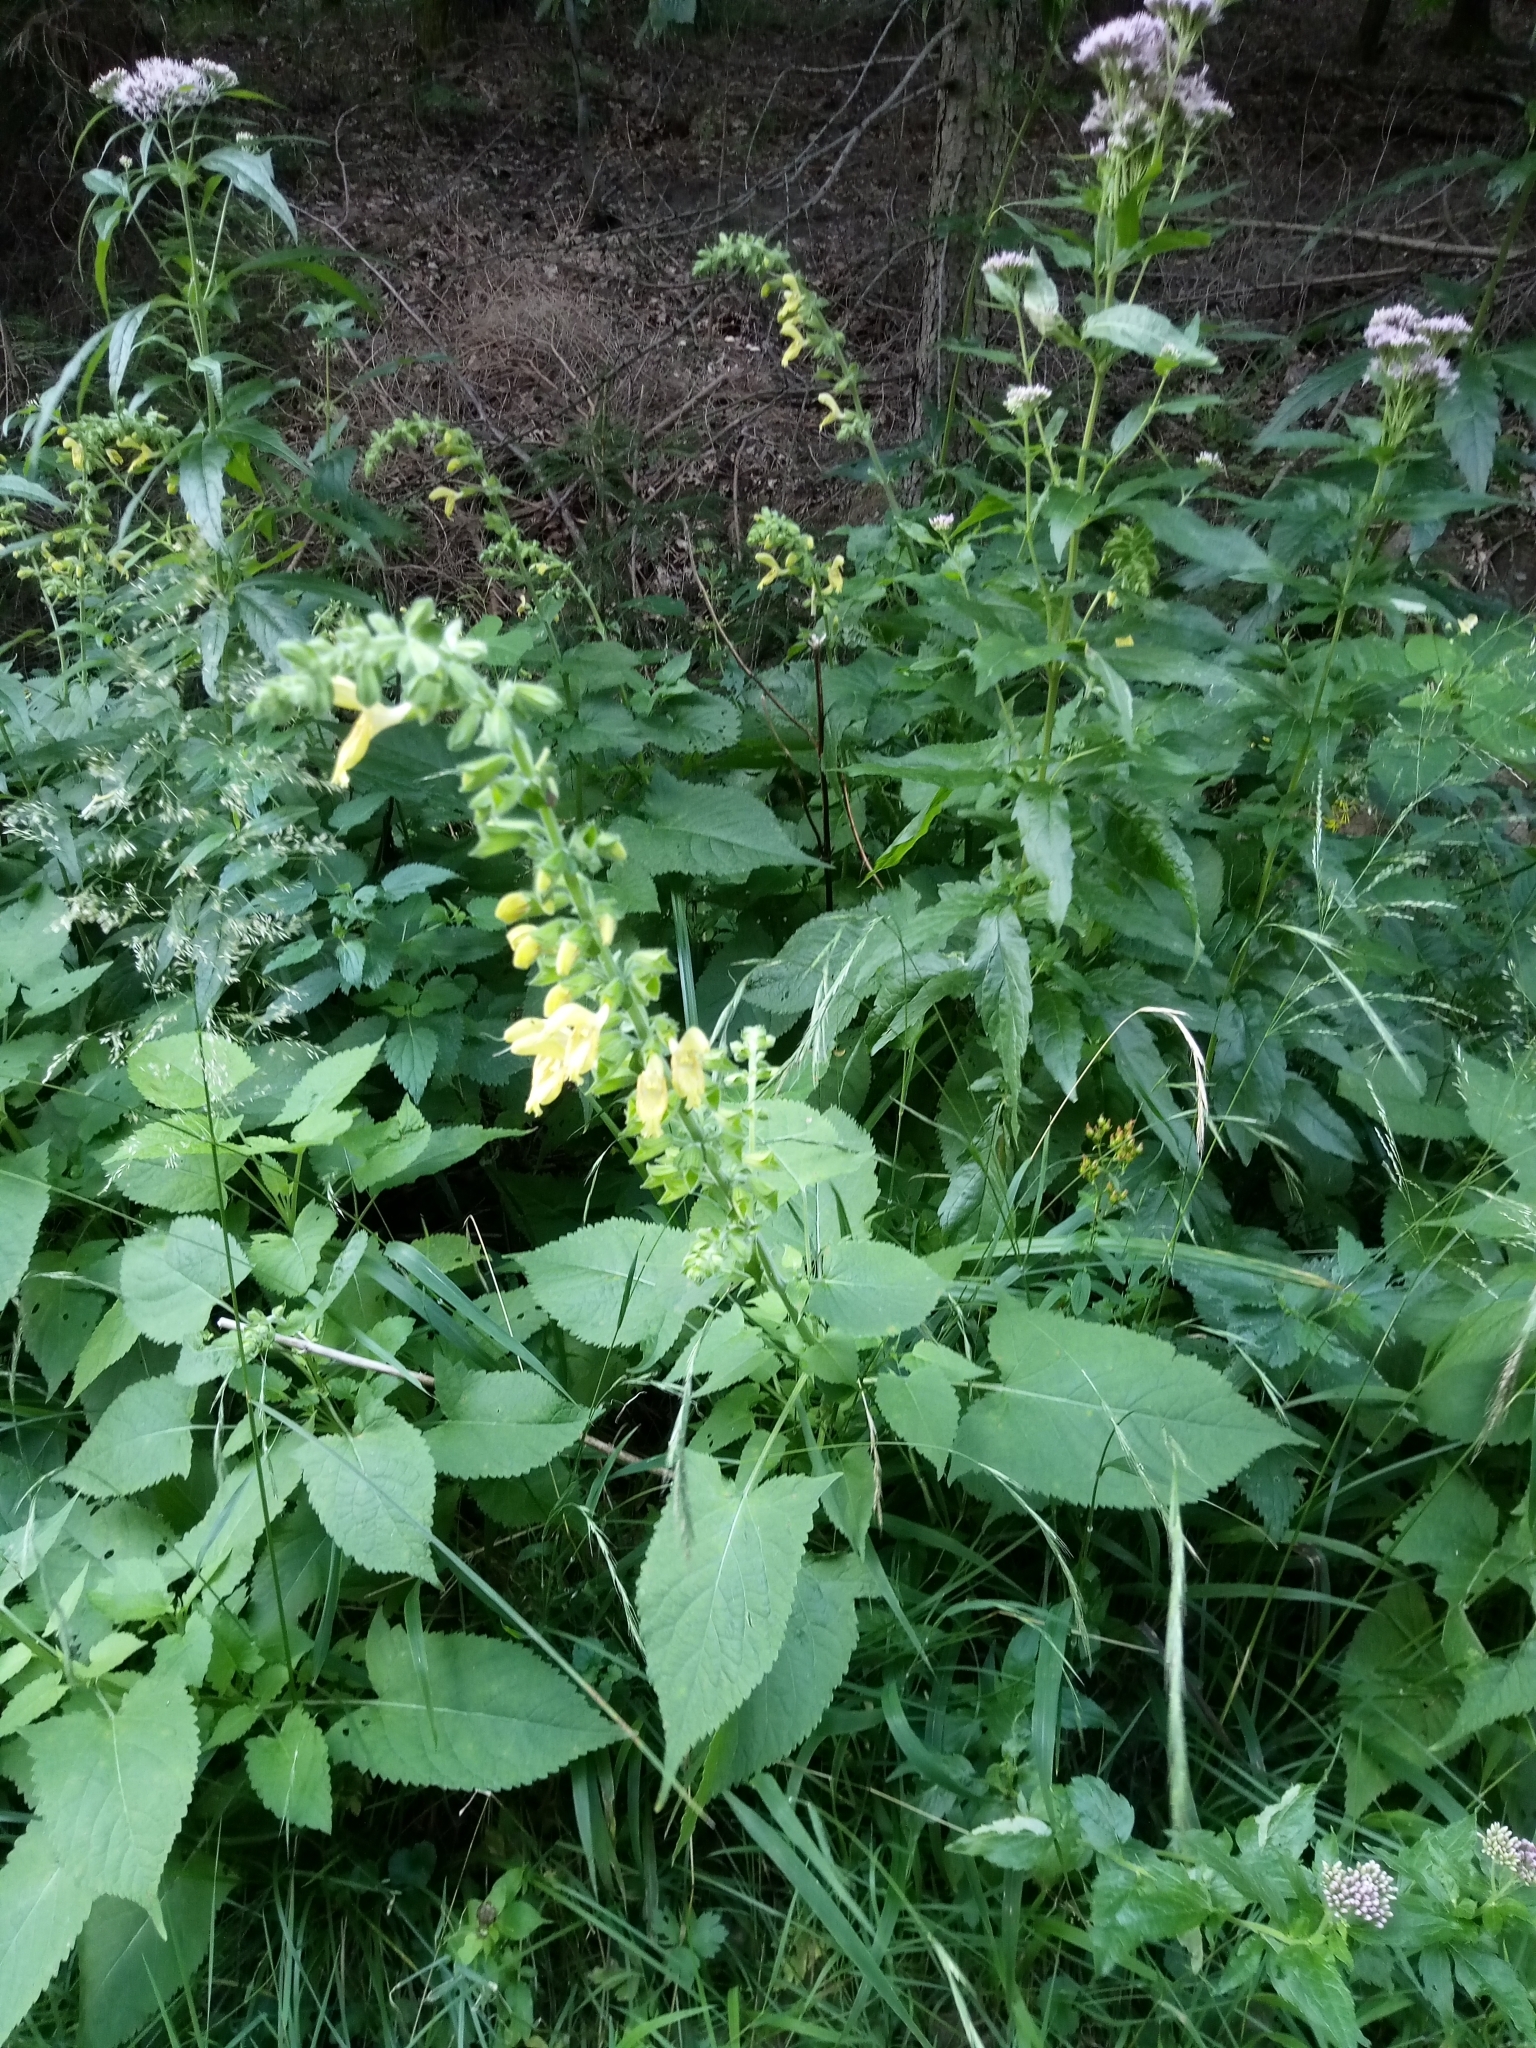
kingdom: Plantae
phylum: Tracheophyta
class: Magnoliopsida
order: Lamiales
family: Lamiaceae
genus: Salvia
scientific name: Salvia glutinosa
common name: Sticky clary
